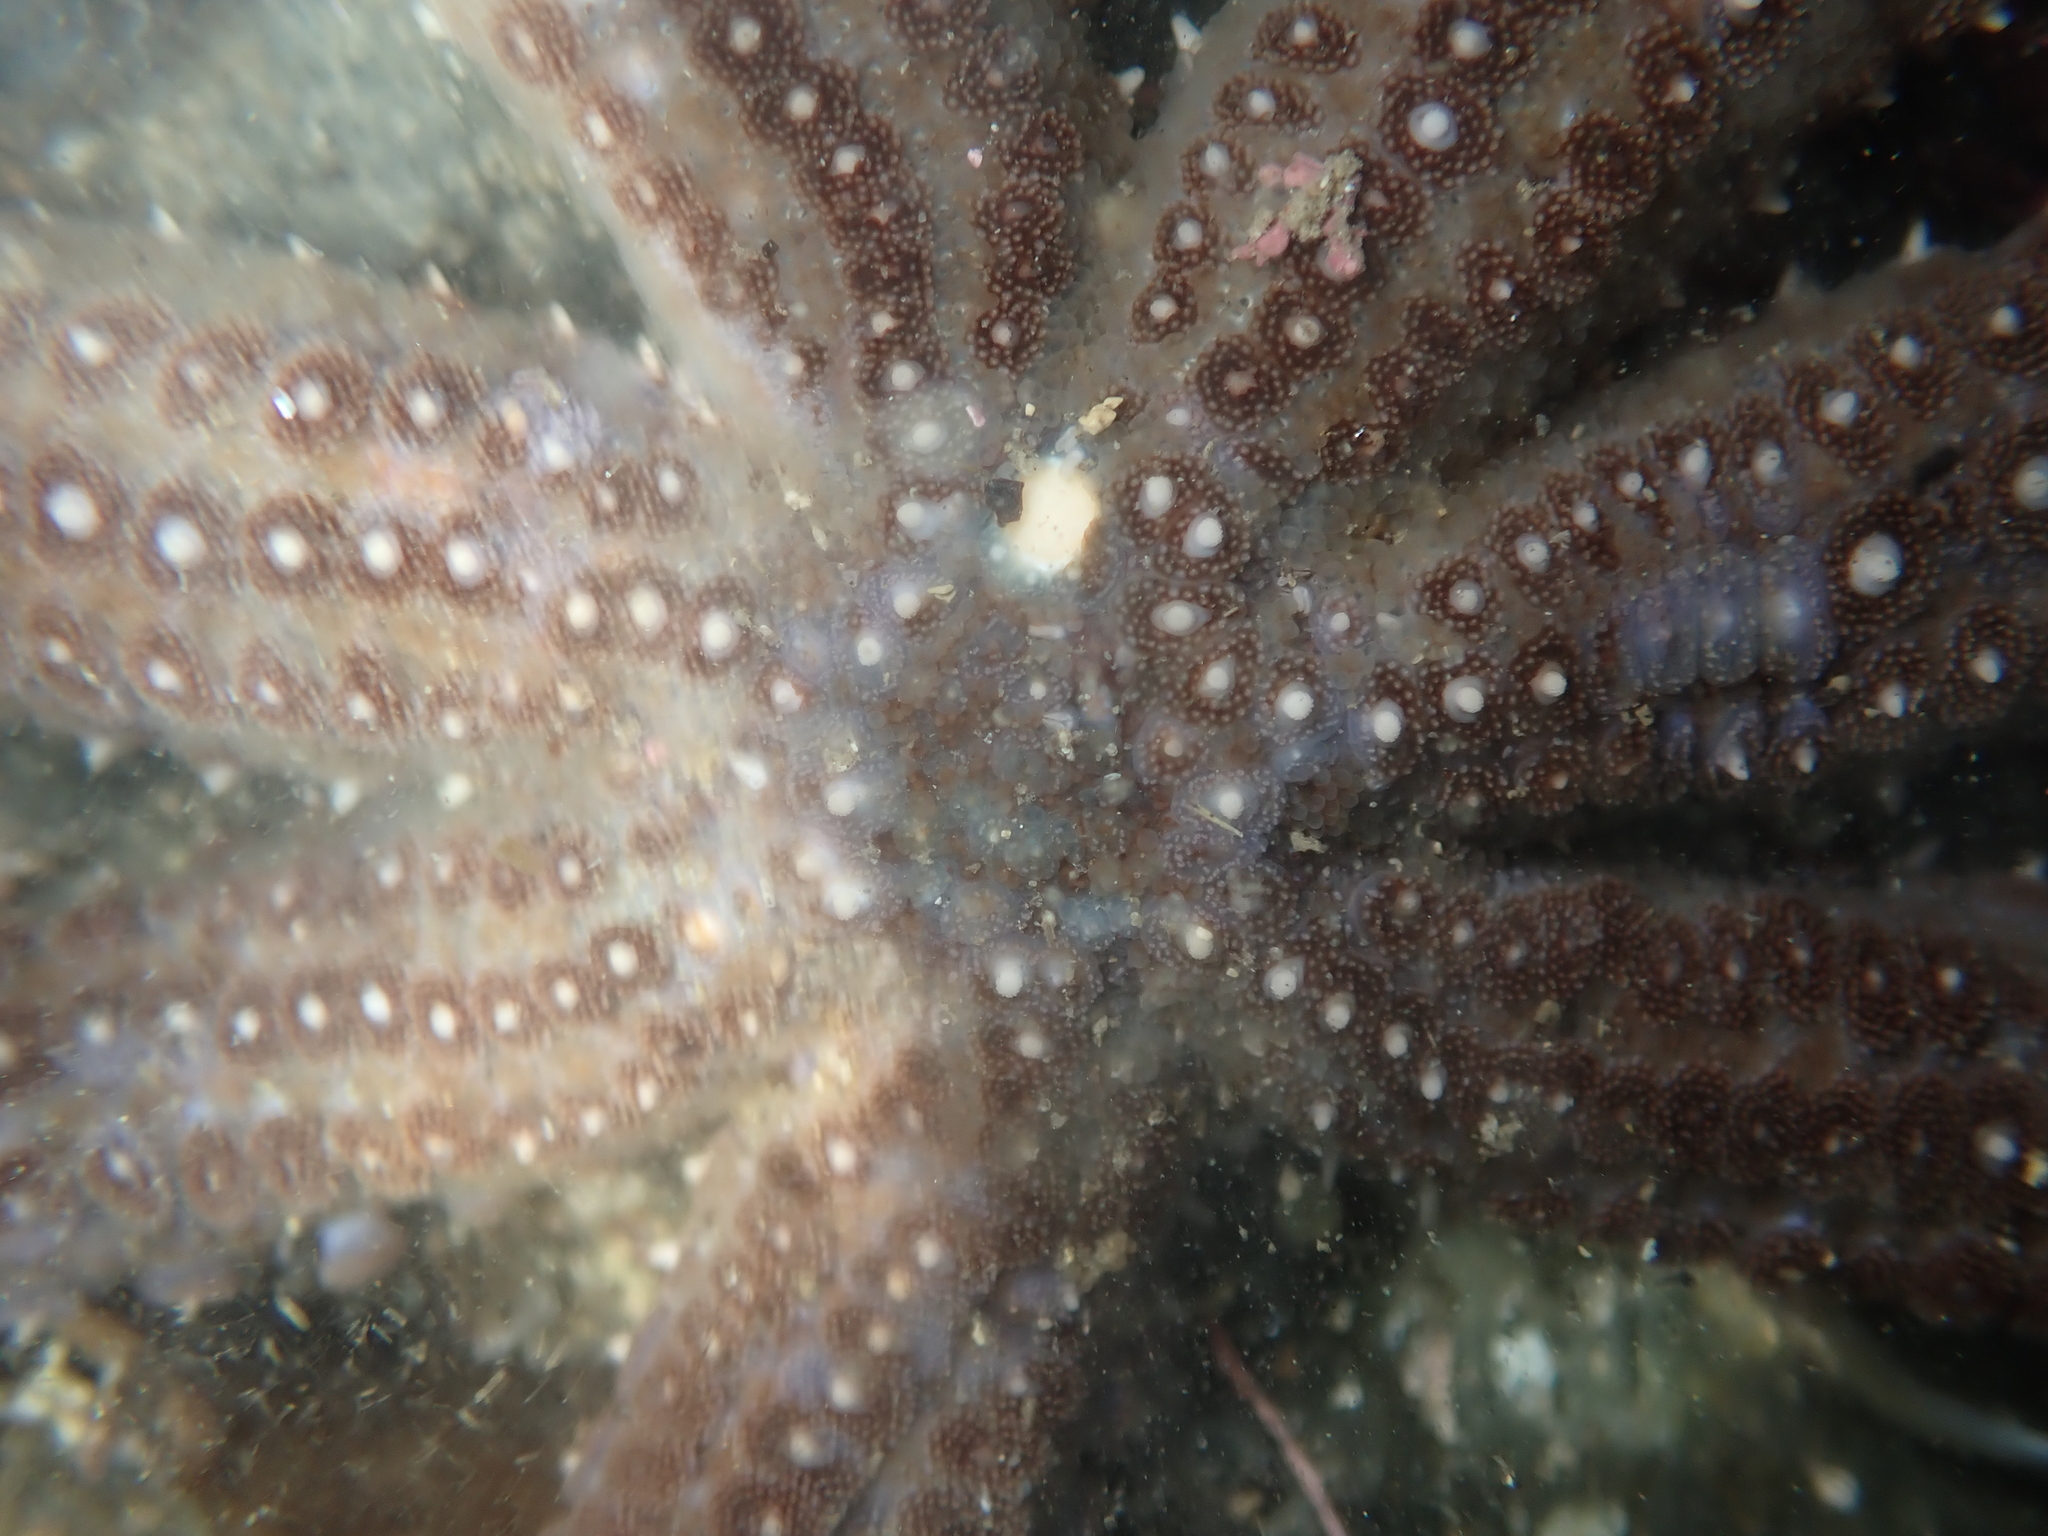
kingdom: Animalia
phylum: Echinodermata
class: Asteroidea
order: Forcipulatida
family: Asteriidae
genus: Astrostole
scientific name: Astrostole scabra
